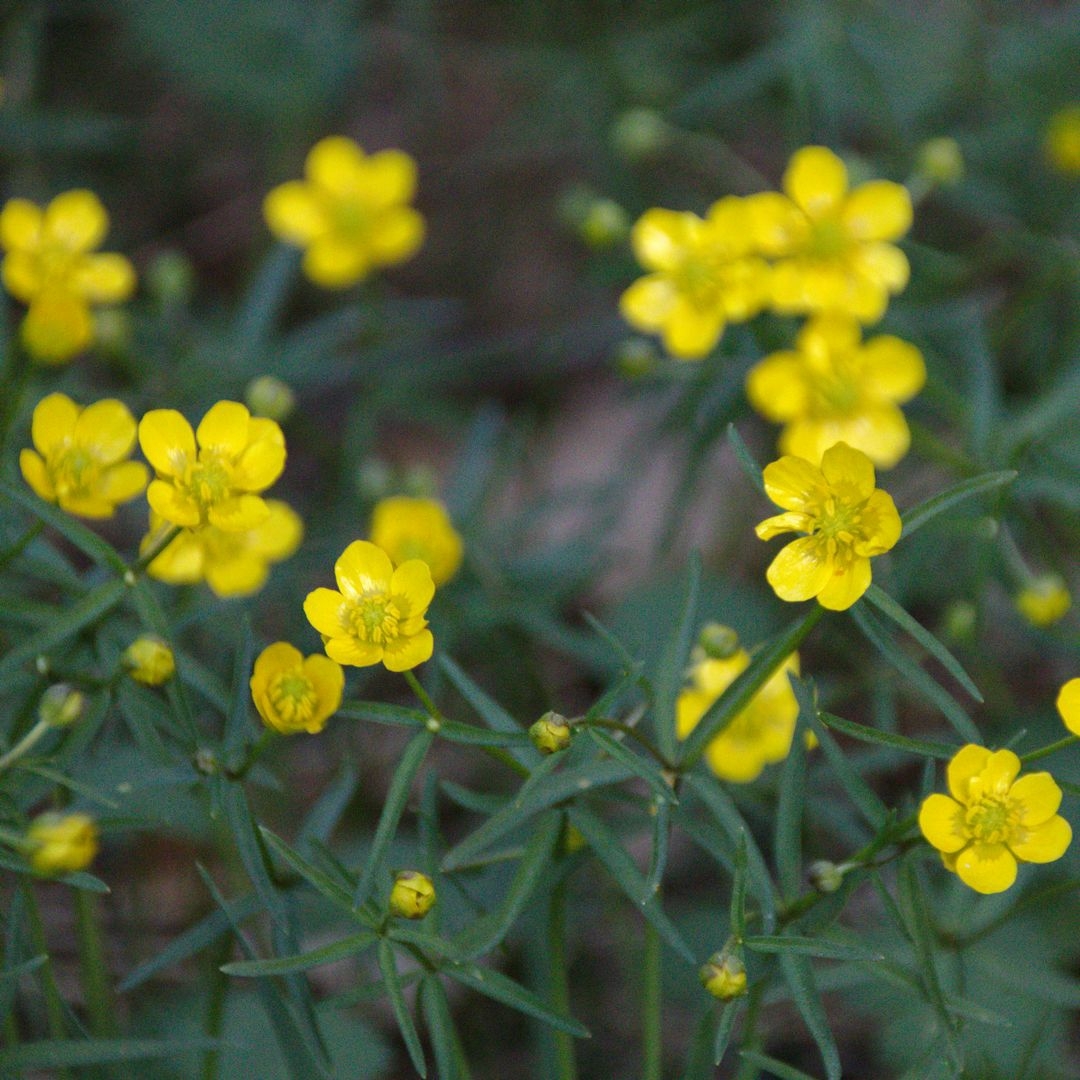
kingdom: Plantae
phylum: Tracheophyta
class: Magnoliopsida
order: Ranunculales
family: Ranunculaceae
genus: Ranunculus
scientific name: Ranunculus monophyllus
